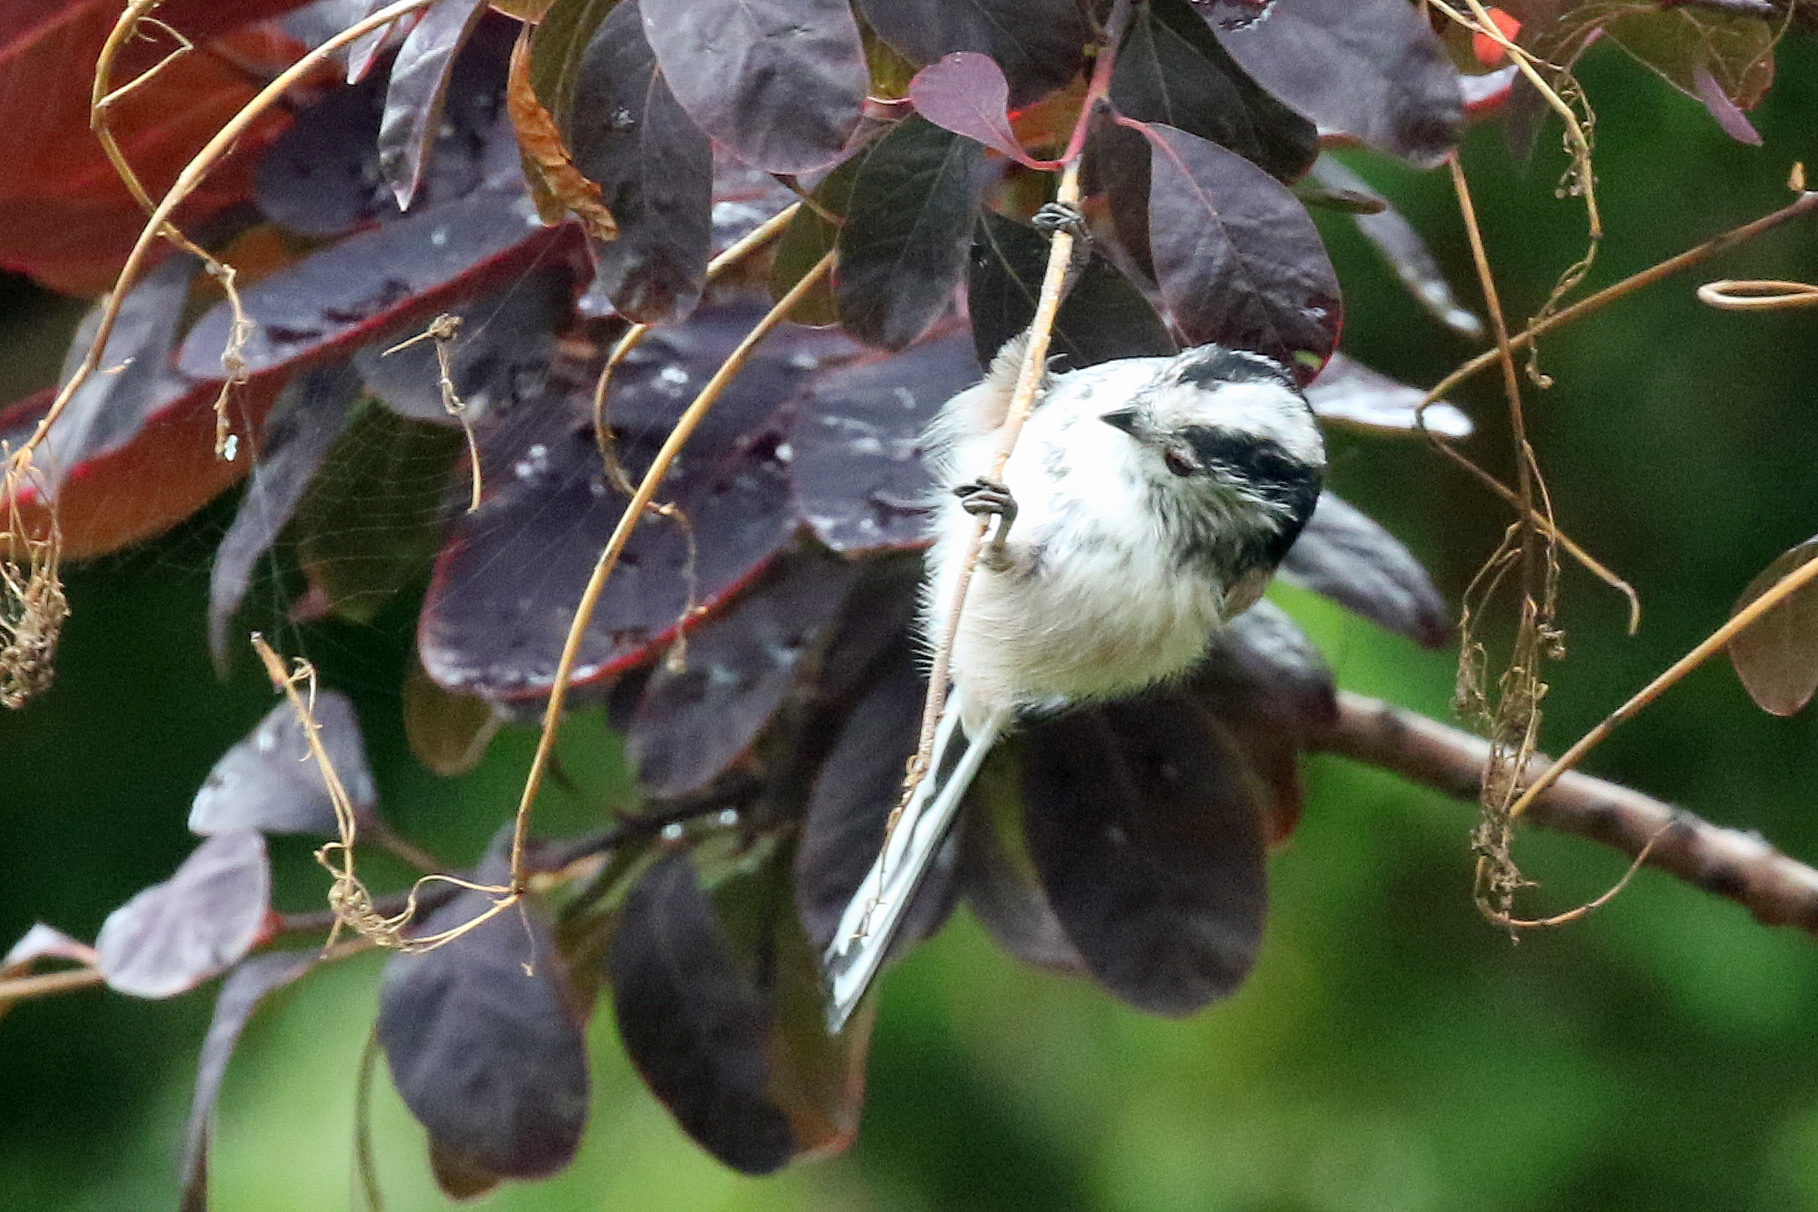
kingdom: Animalia
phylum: Chordata
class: Aves
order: Passeriformes
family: Aegithalidae
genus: Aegithalos
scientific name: Aegithalos caudatus
